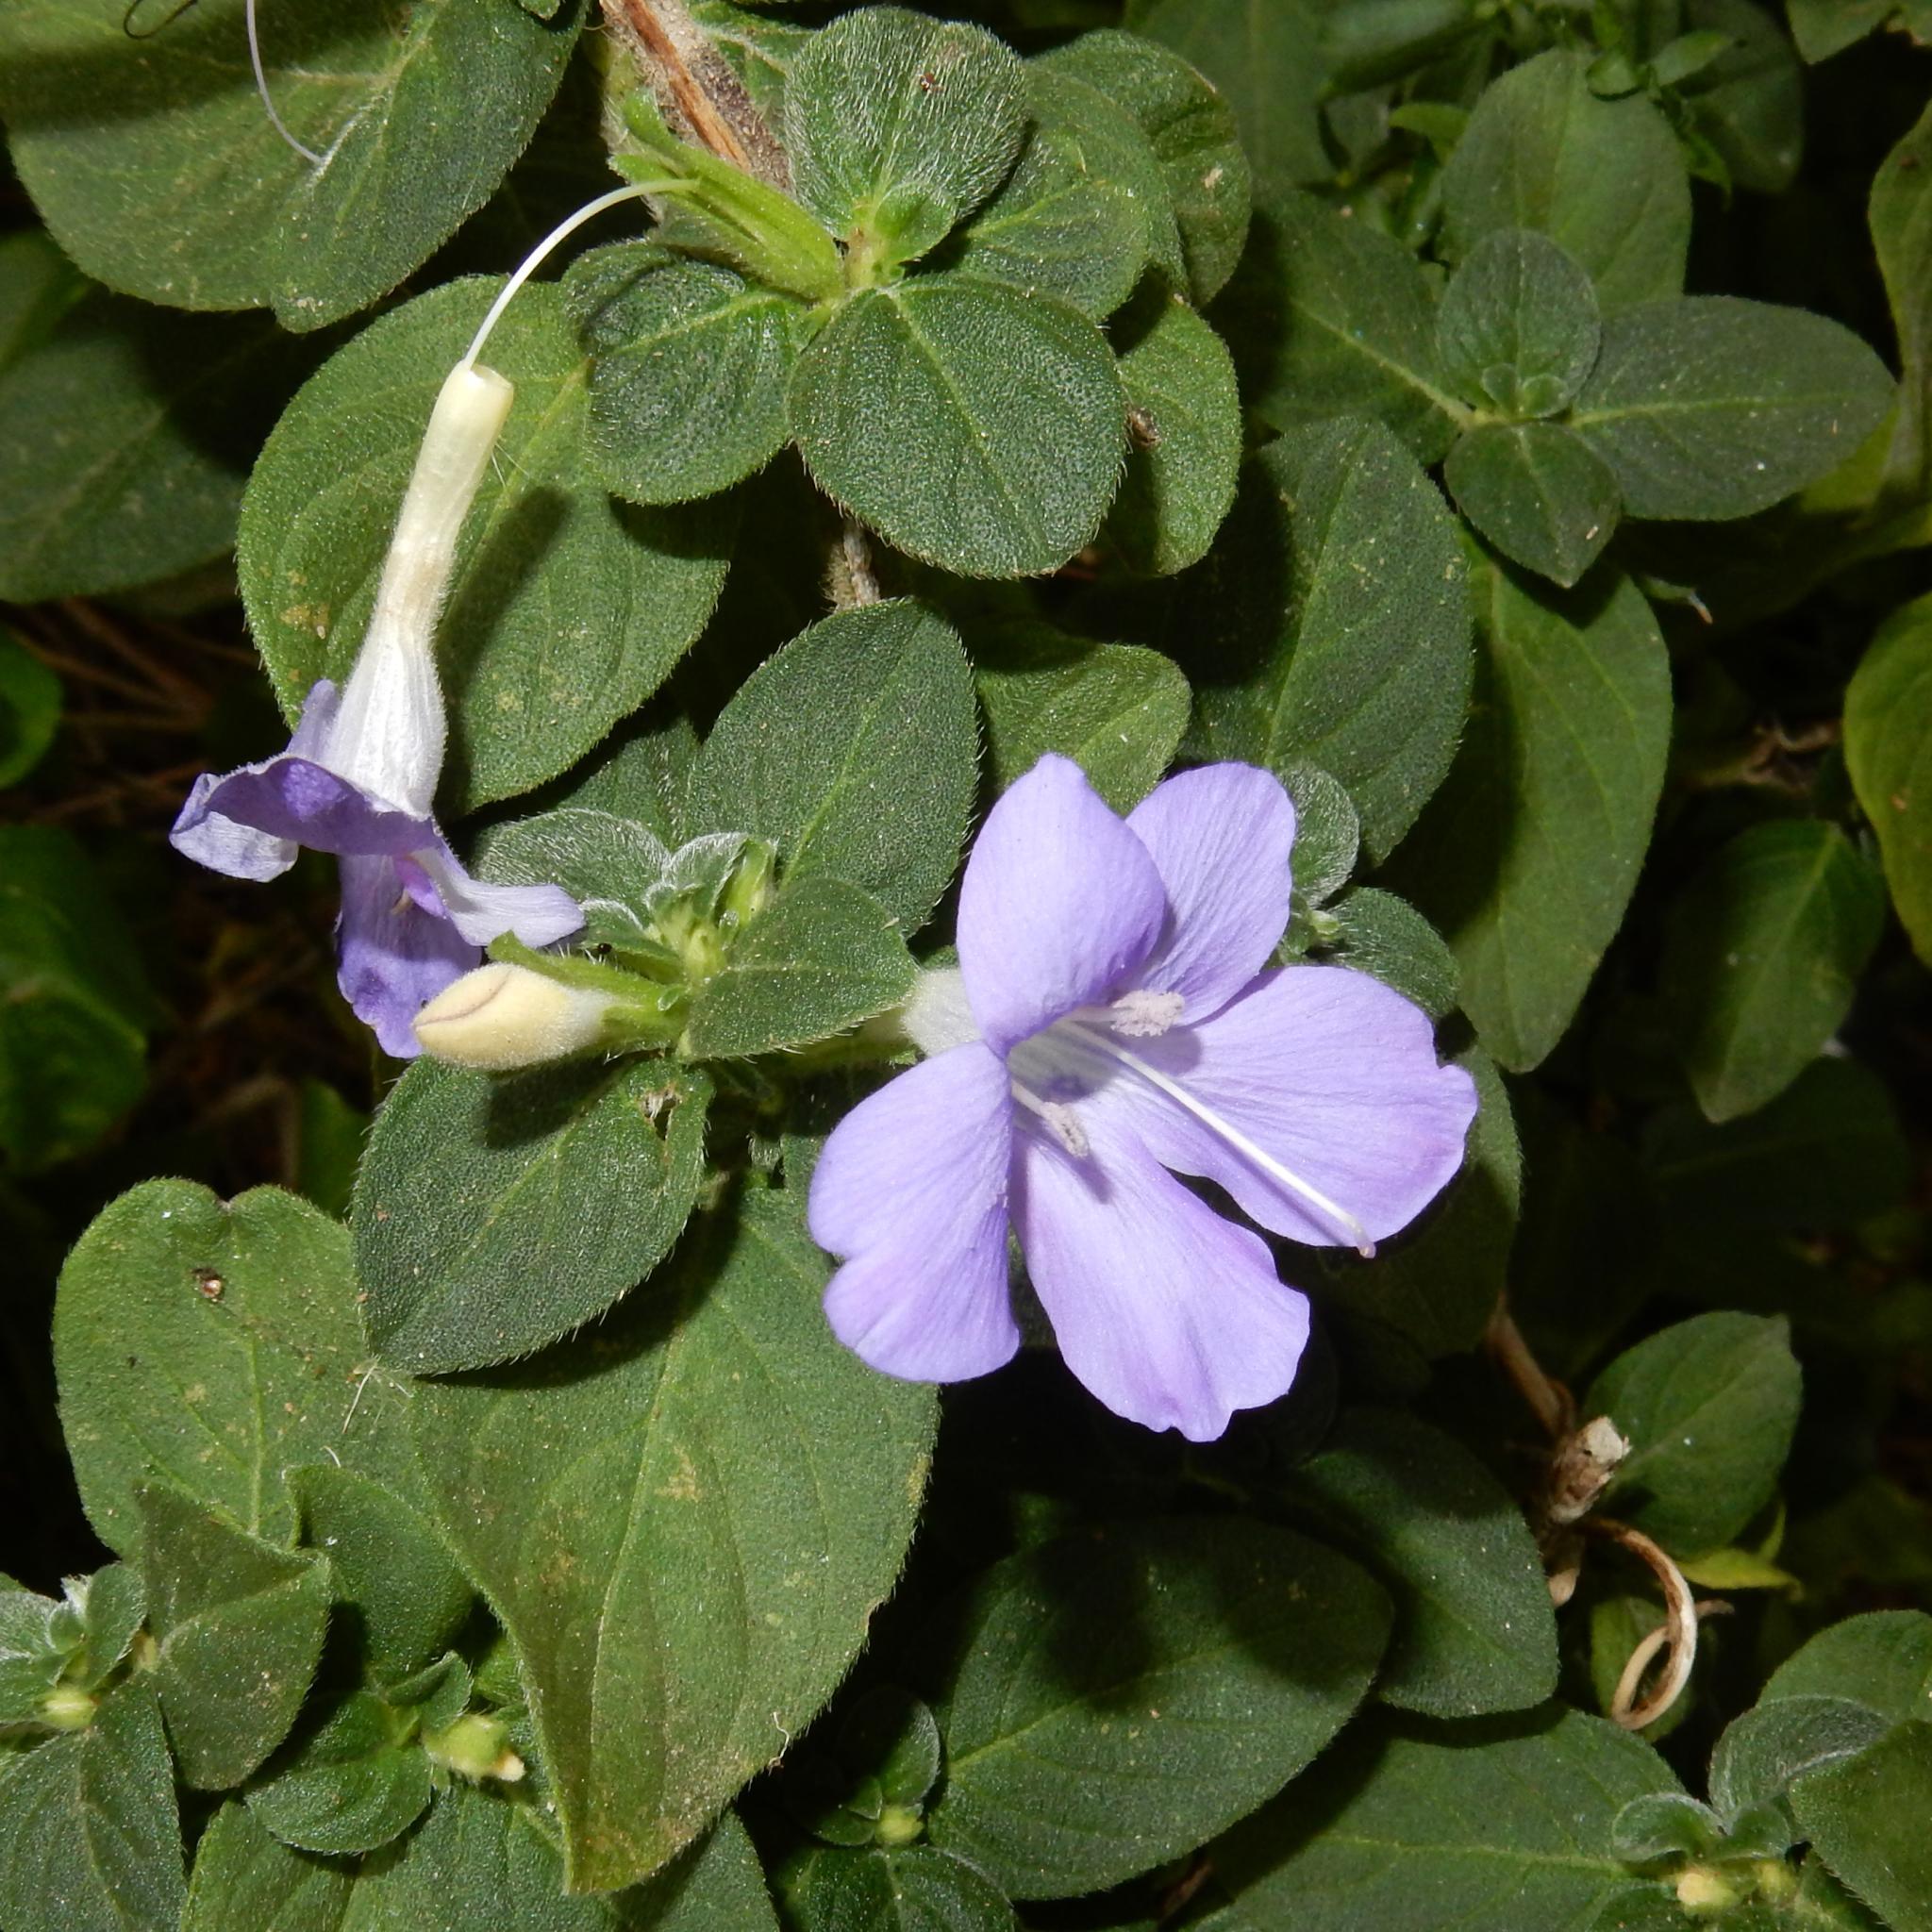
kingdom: Plantae
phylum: Tracheophyta
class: Magnoliopsida
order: Lamiales
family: Acanthaceae
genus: Barleria
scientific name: Barleria obtusa
